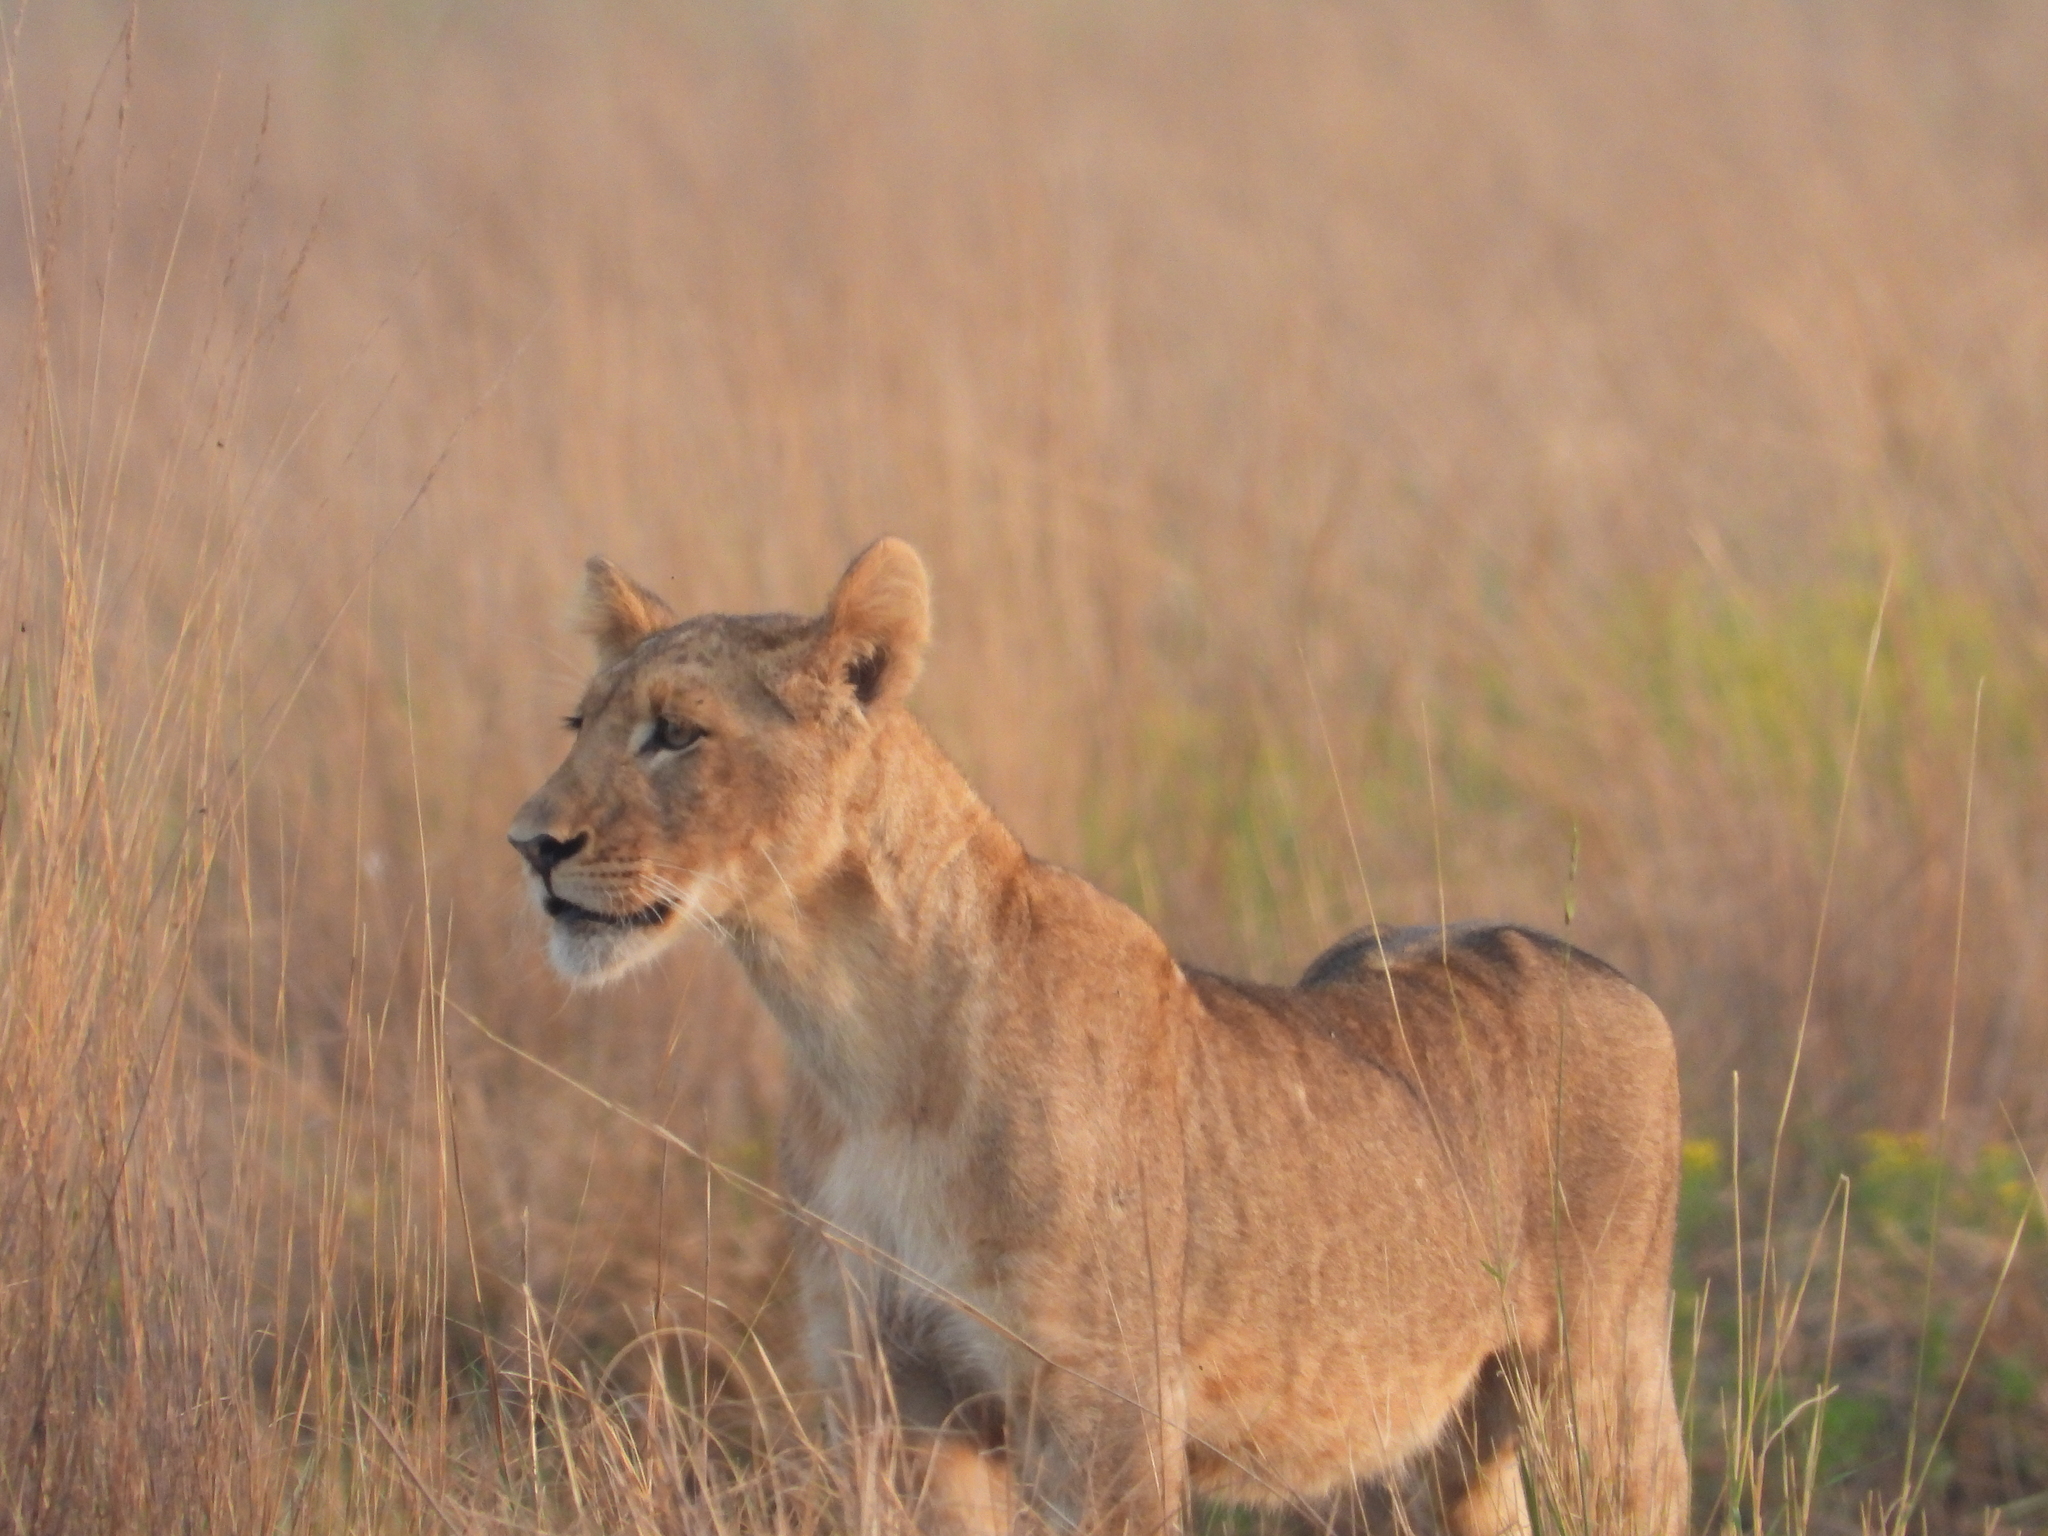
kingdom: Animalia
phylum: Chordata
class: Mammalia
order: Carnivora
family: Felidae
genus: Panthera
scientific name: Panthera leo
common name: Lion
